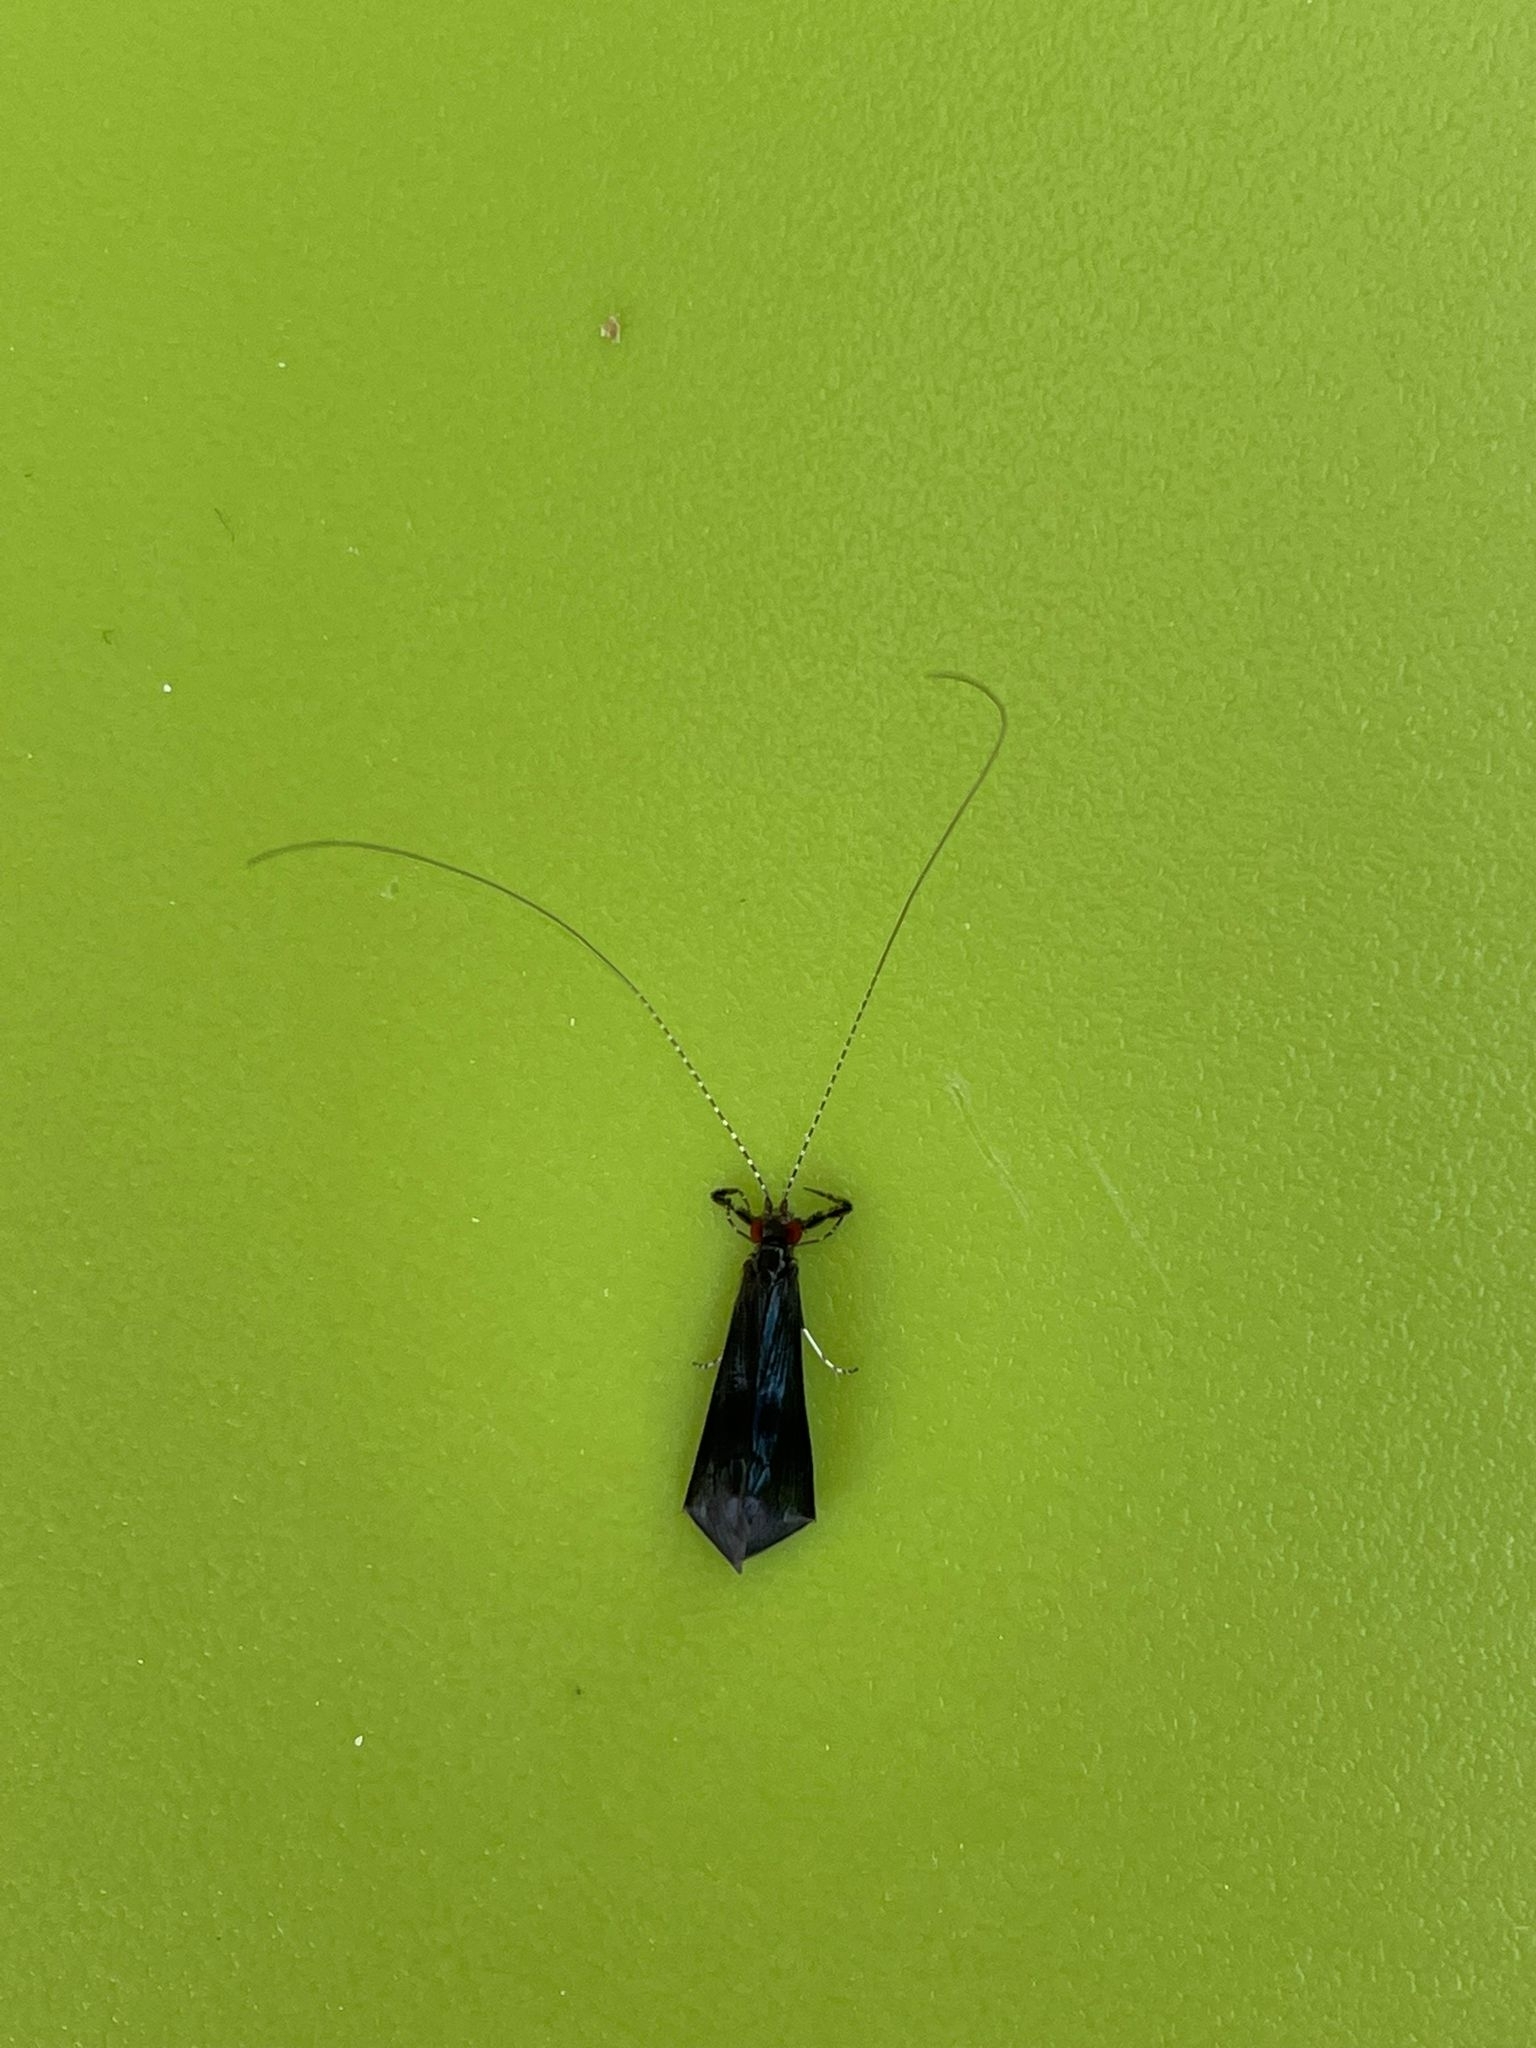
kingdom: Animalia
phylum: Arthropoda
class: Insecta
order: Trichoptera
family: Leptoceridae
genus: Mystacides
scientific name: Mystacides azureus
